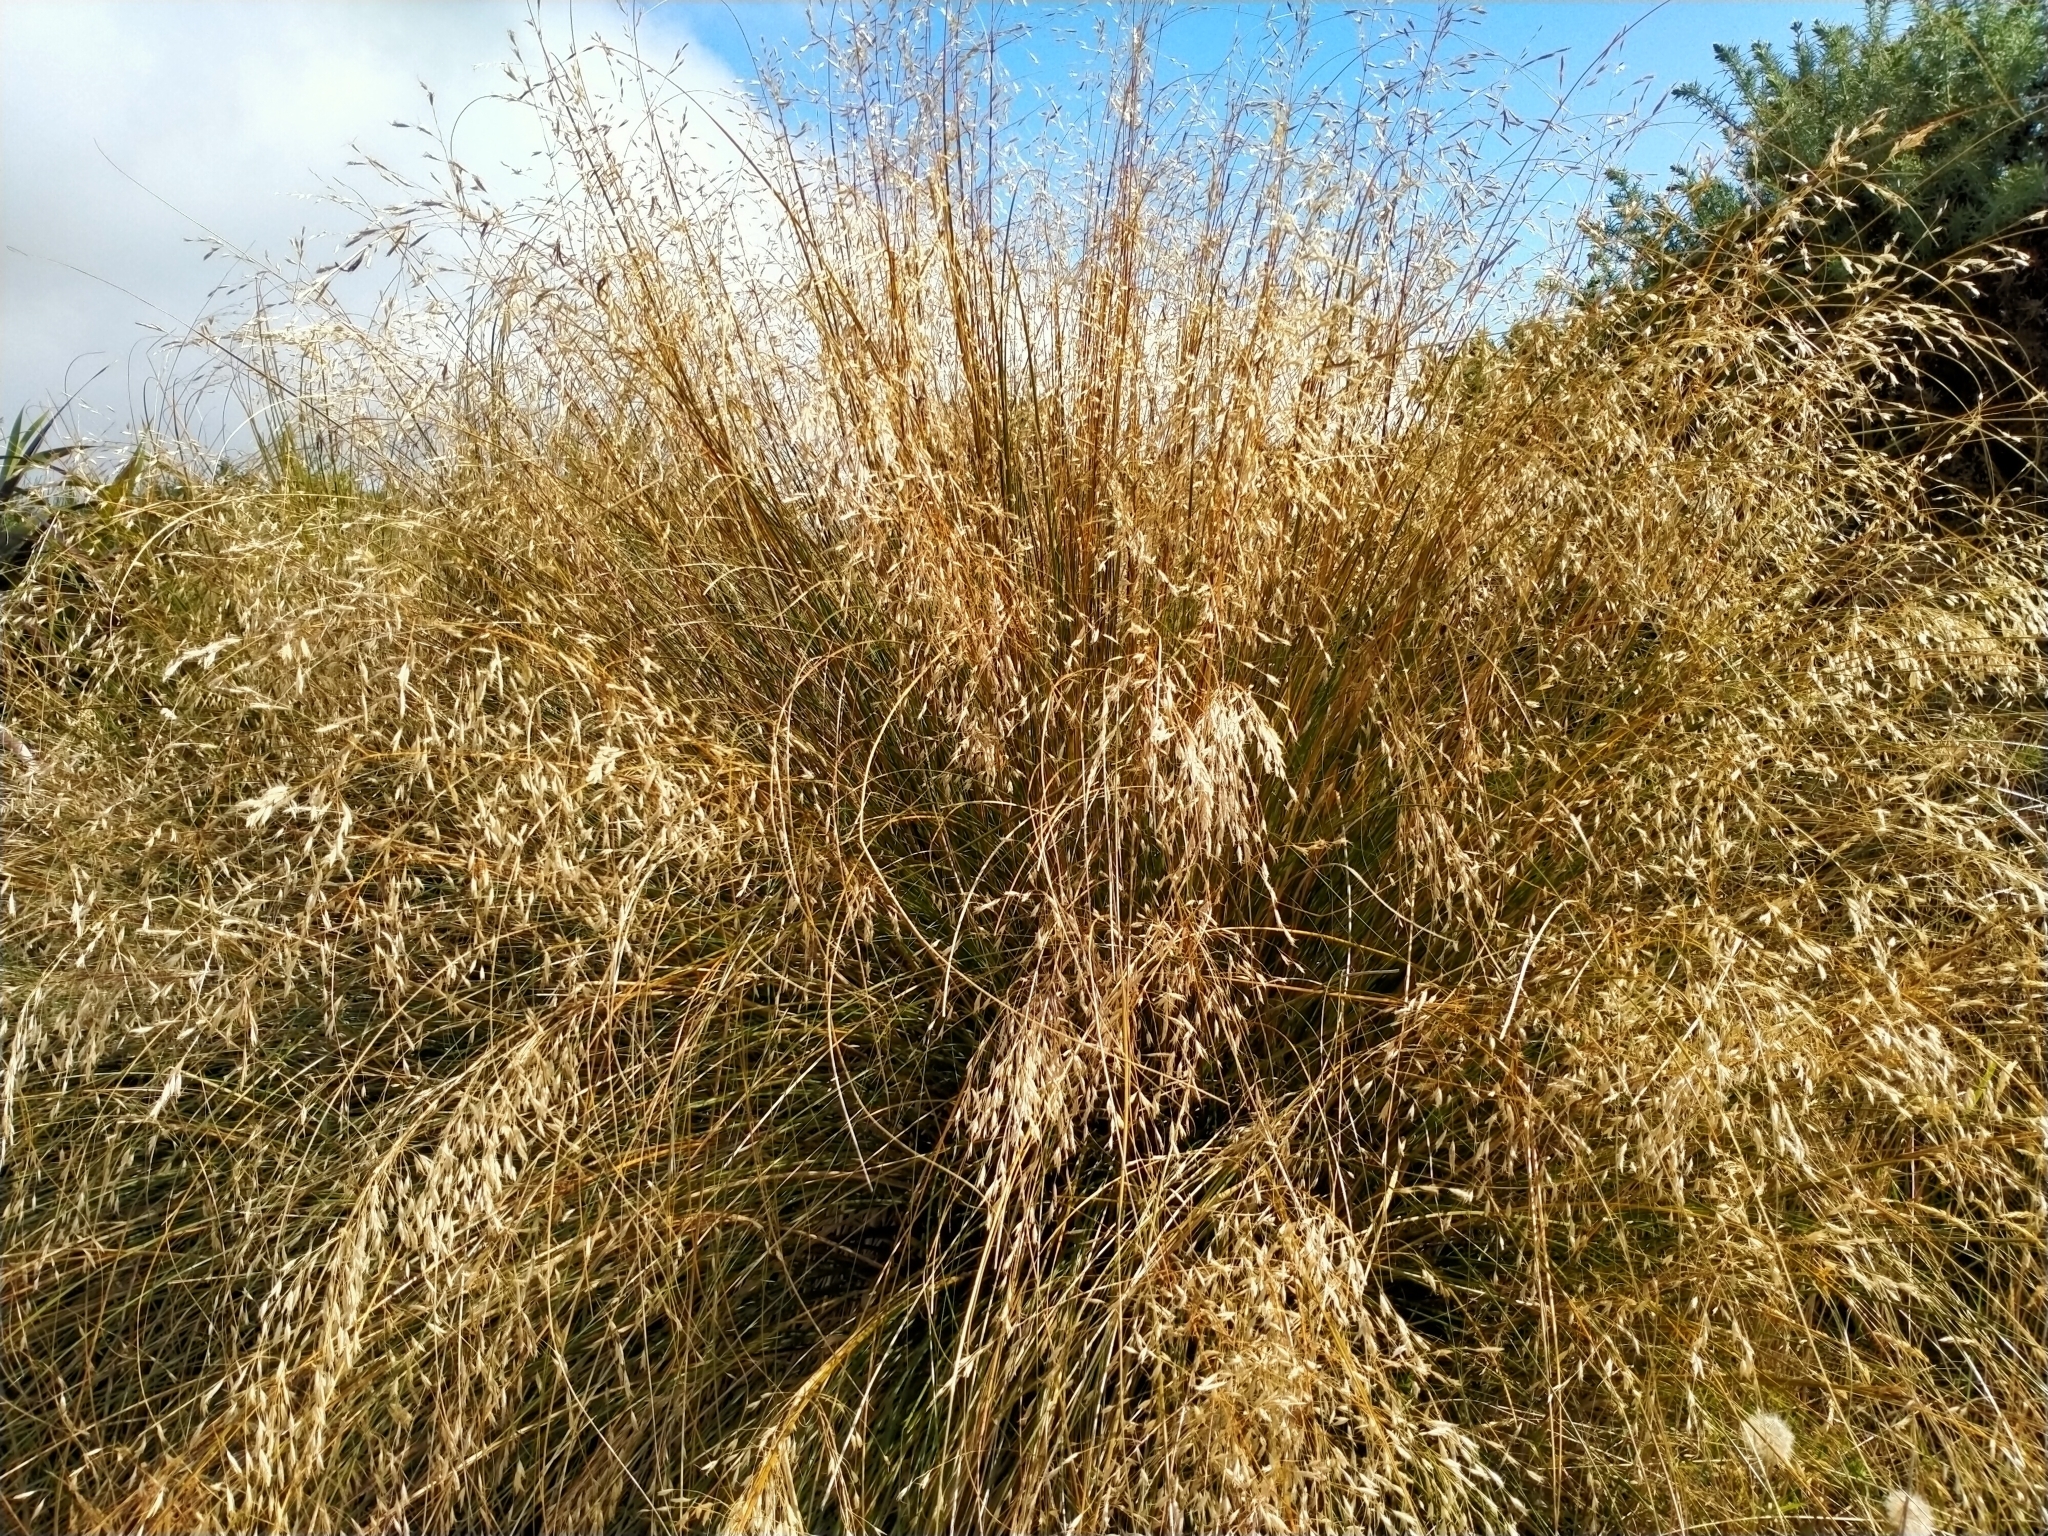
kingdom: Plantae
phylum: Tracheophyta
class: Liliopsida
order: Poales
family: Poaceae
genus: Chionochloa
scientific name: Chionochloa rigida
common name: Narrow leaved snow tussock
